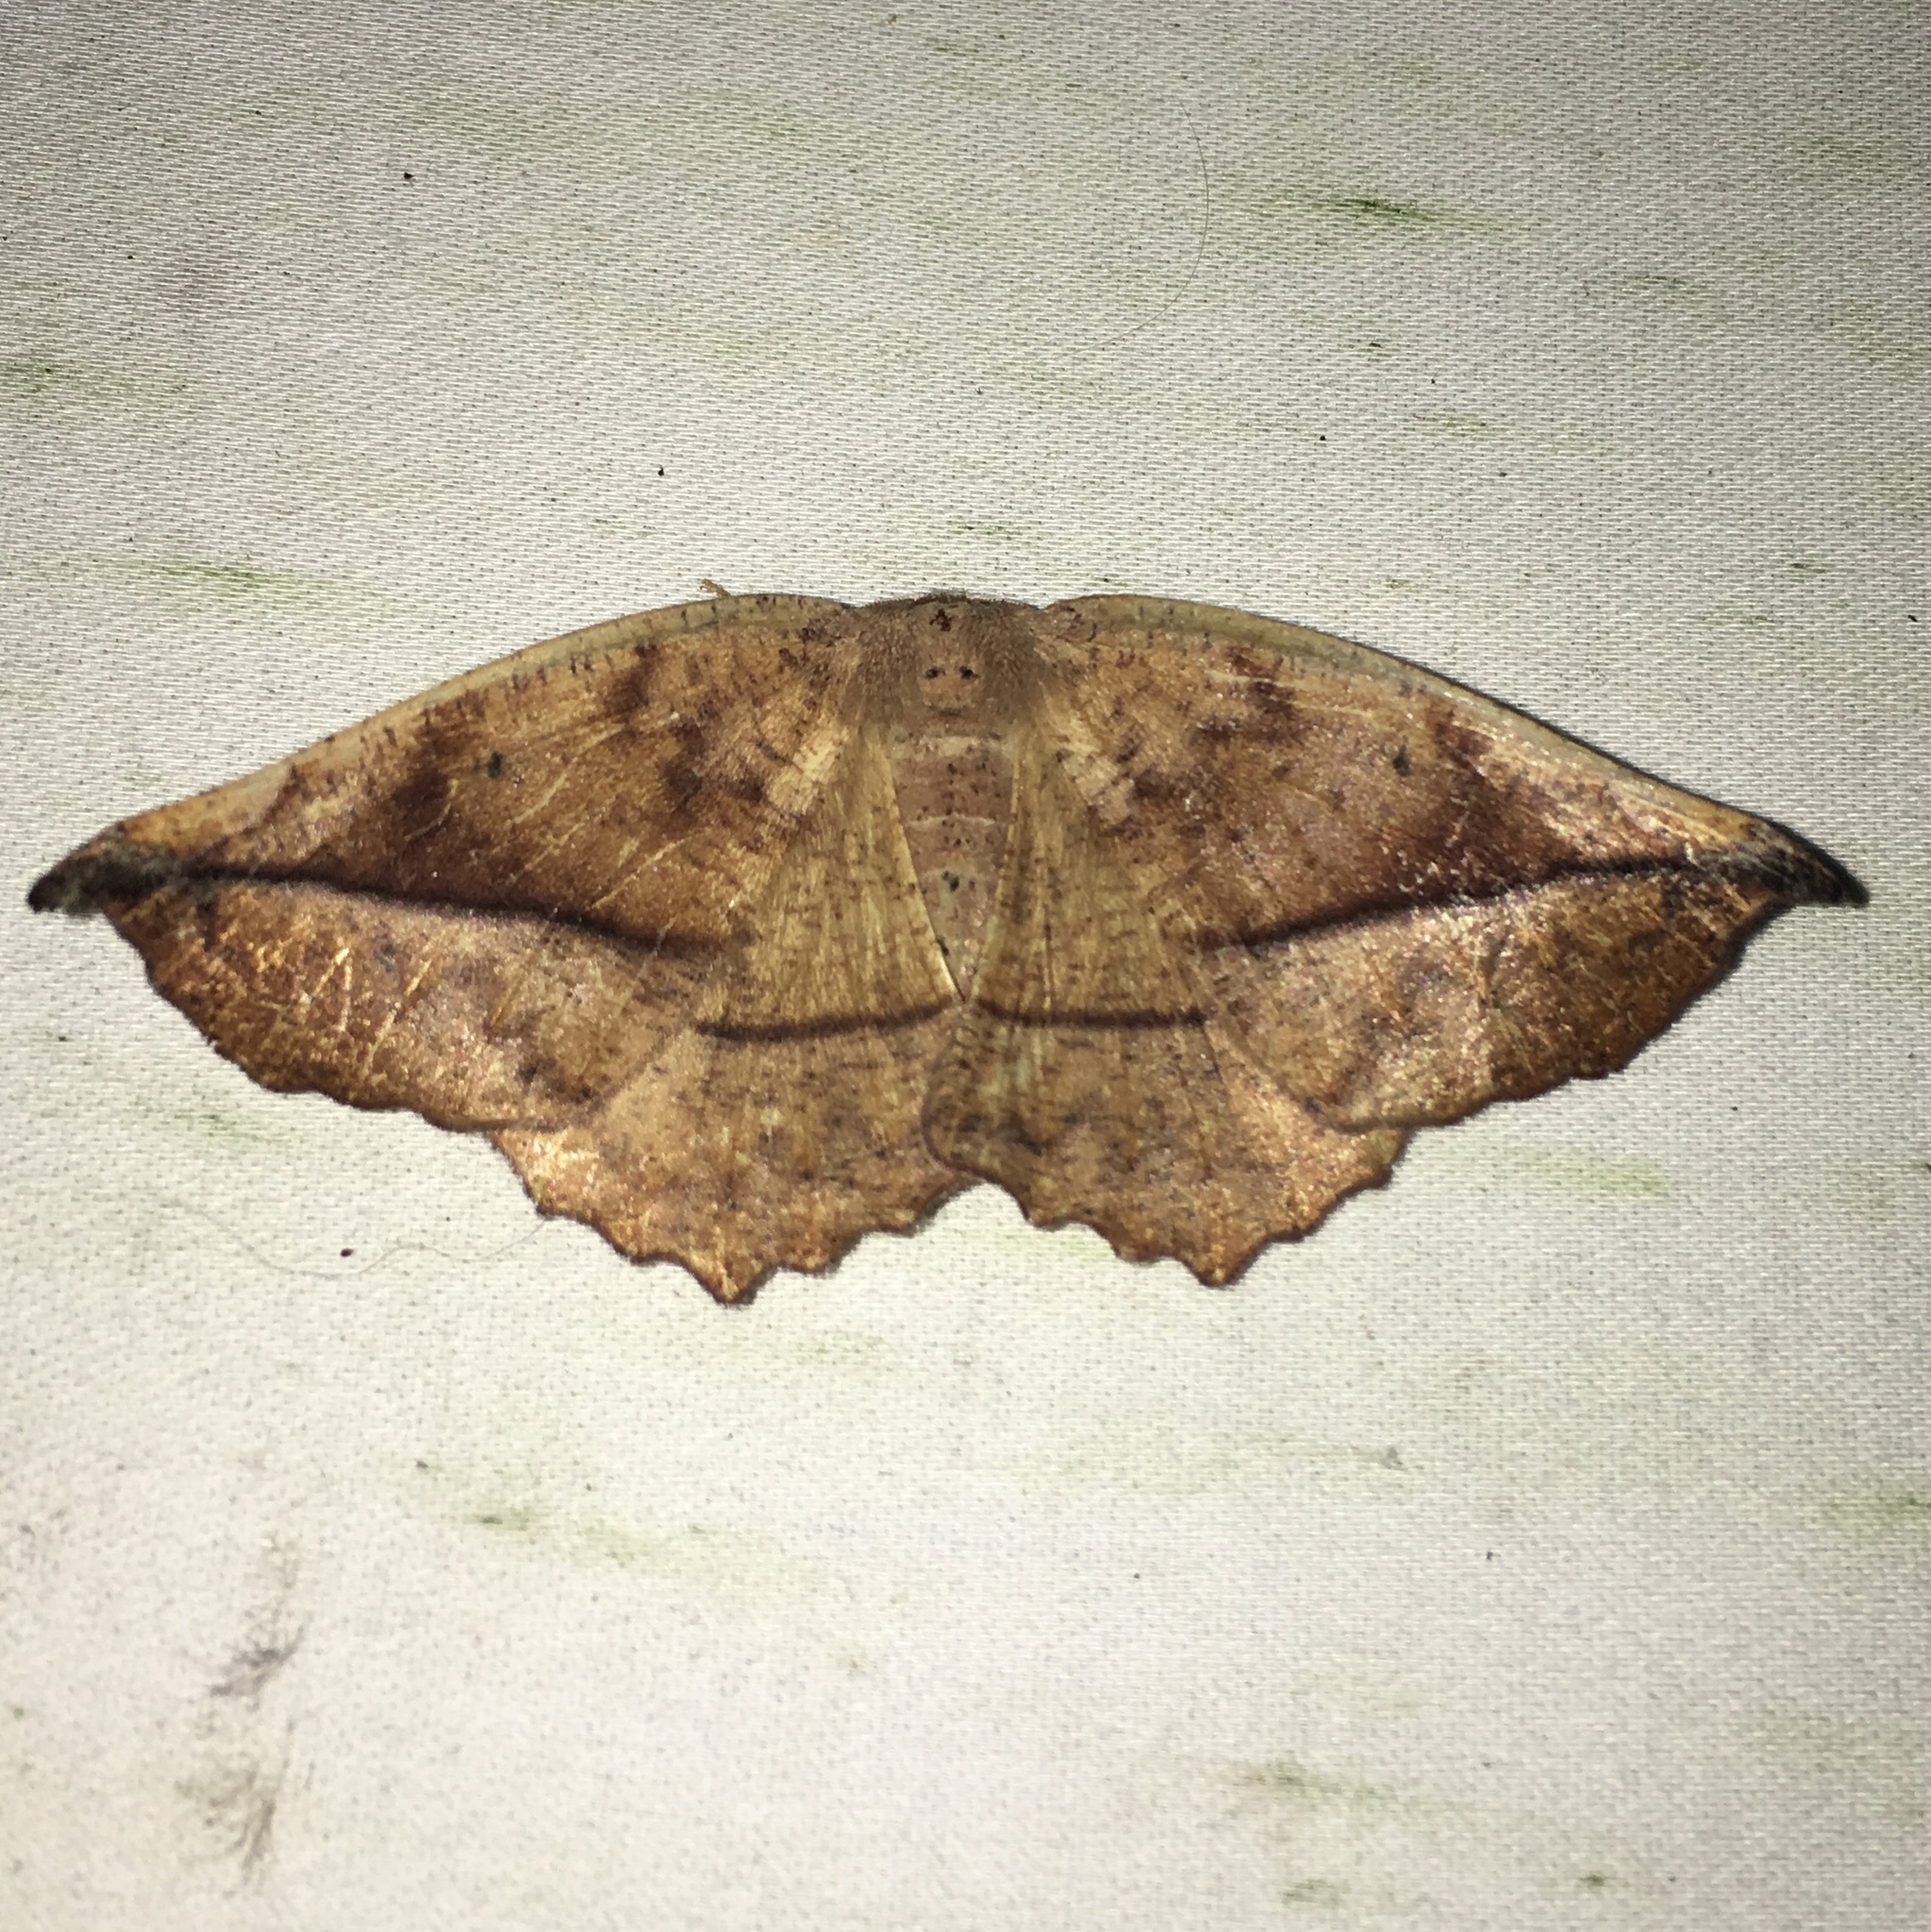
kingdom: Animalia
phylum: Arthropoda
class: Insecta
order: Lepidoptera
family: Geometridae
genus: Eutrapela
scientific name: Eutrapela clemataria
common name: Curved-toothed geometer
